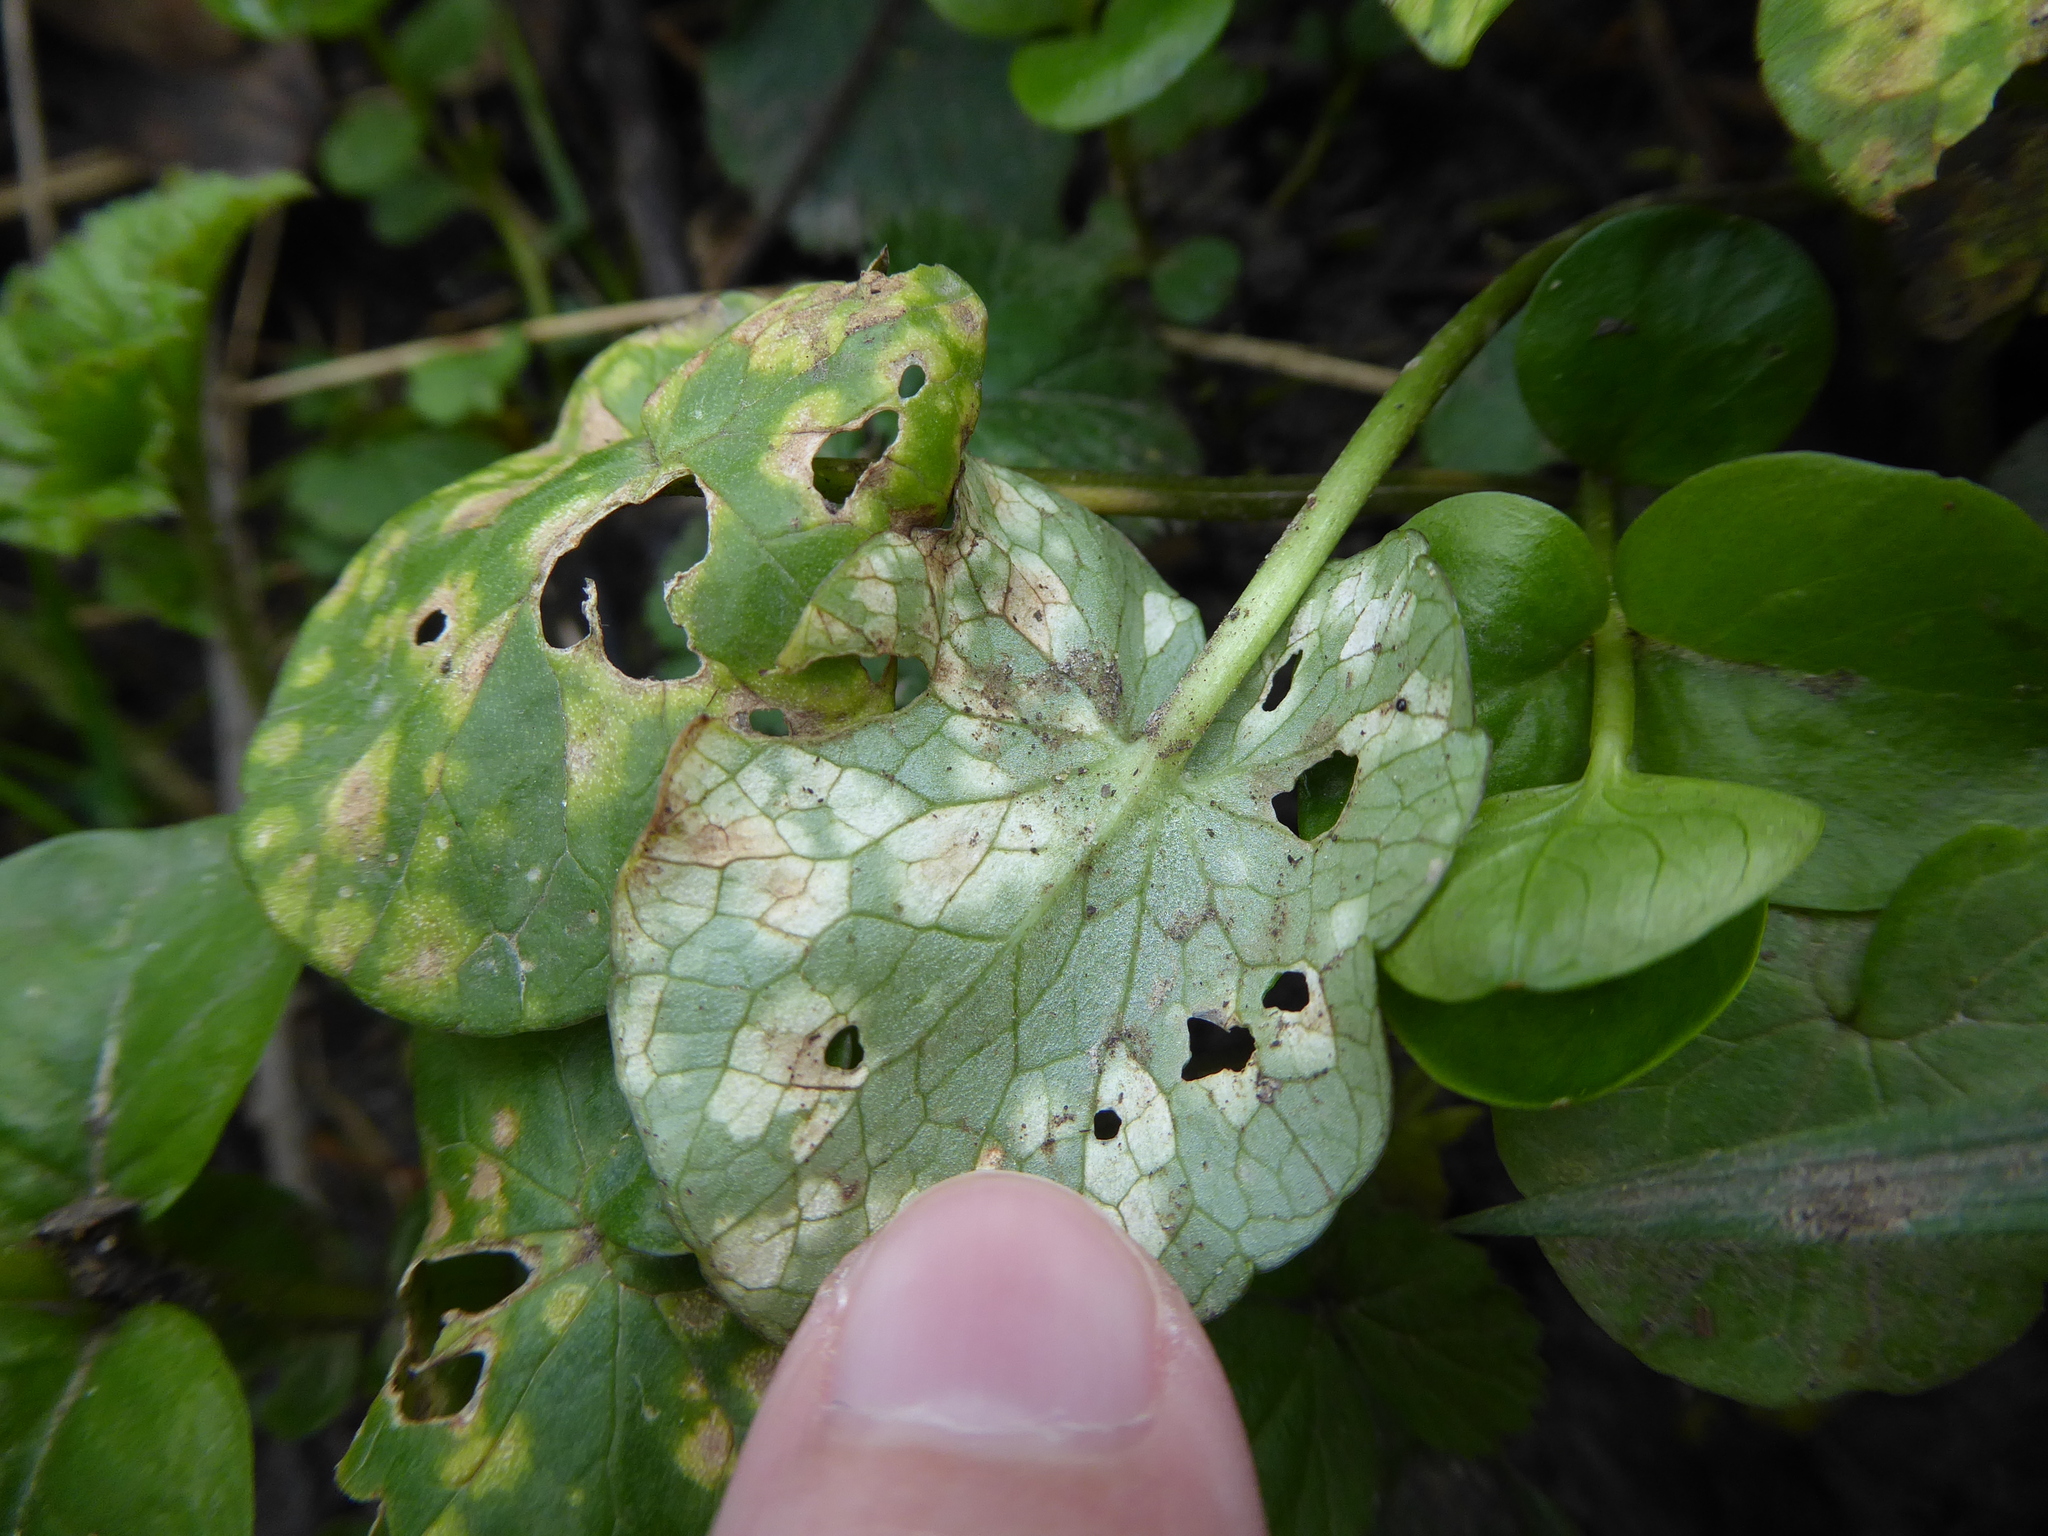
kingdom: Fungi
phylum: Basidiomycota
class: Exobasidiomycetes
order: Entylomatales
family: Entylomataceae
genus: Entyloma
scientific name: Entyloma ficariae
